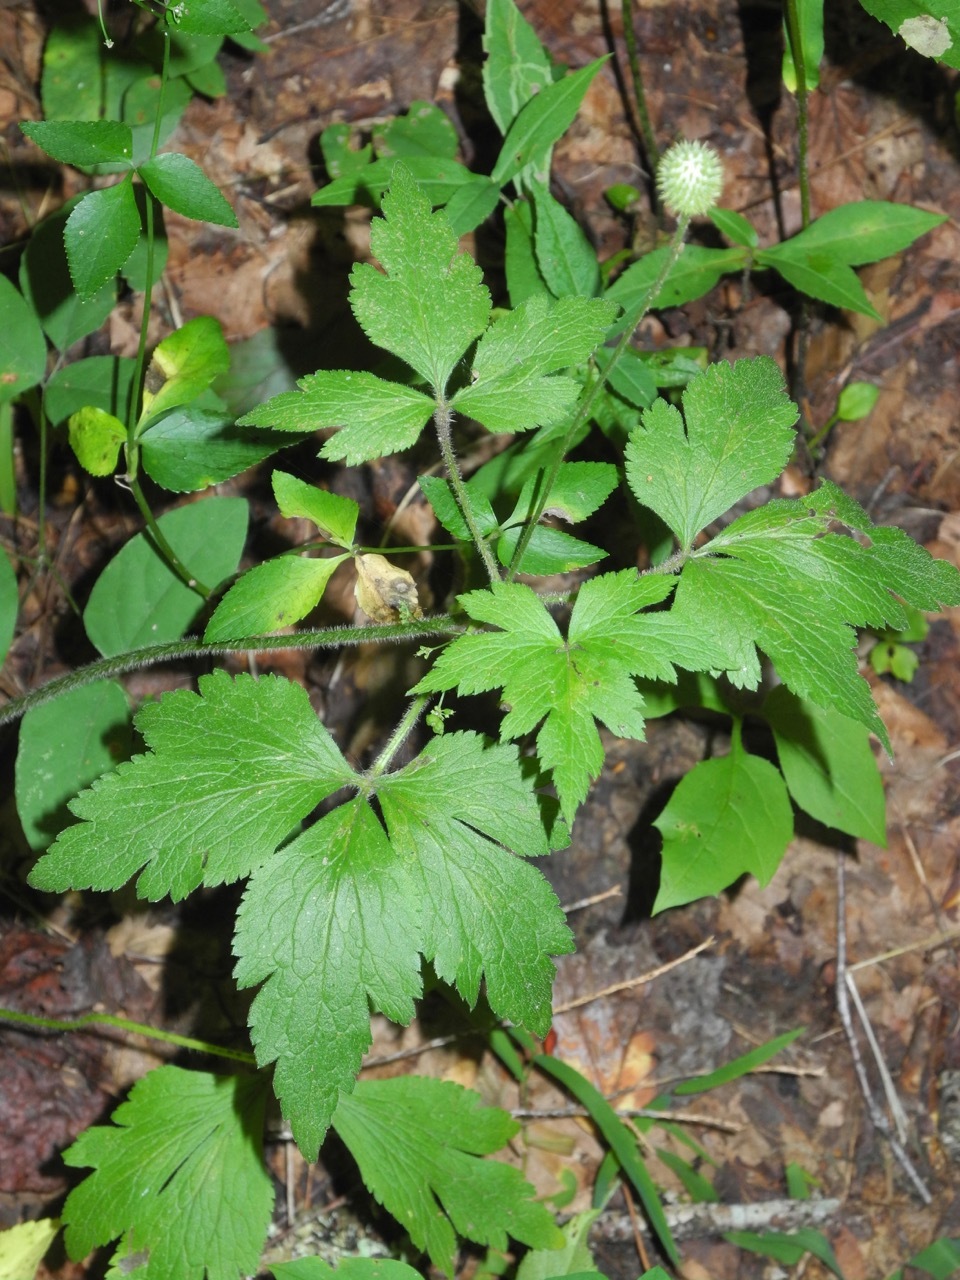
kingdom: Plantae
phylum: Tracheophyta
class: Magnoliopsida
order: Ranunculales
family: Ranunculaceae
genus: Anemone
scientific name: Anemone virginiana
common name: Tall anemone
